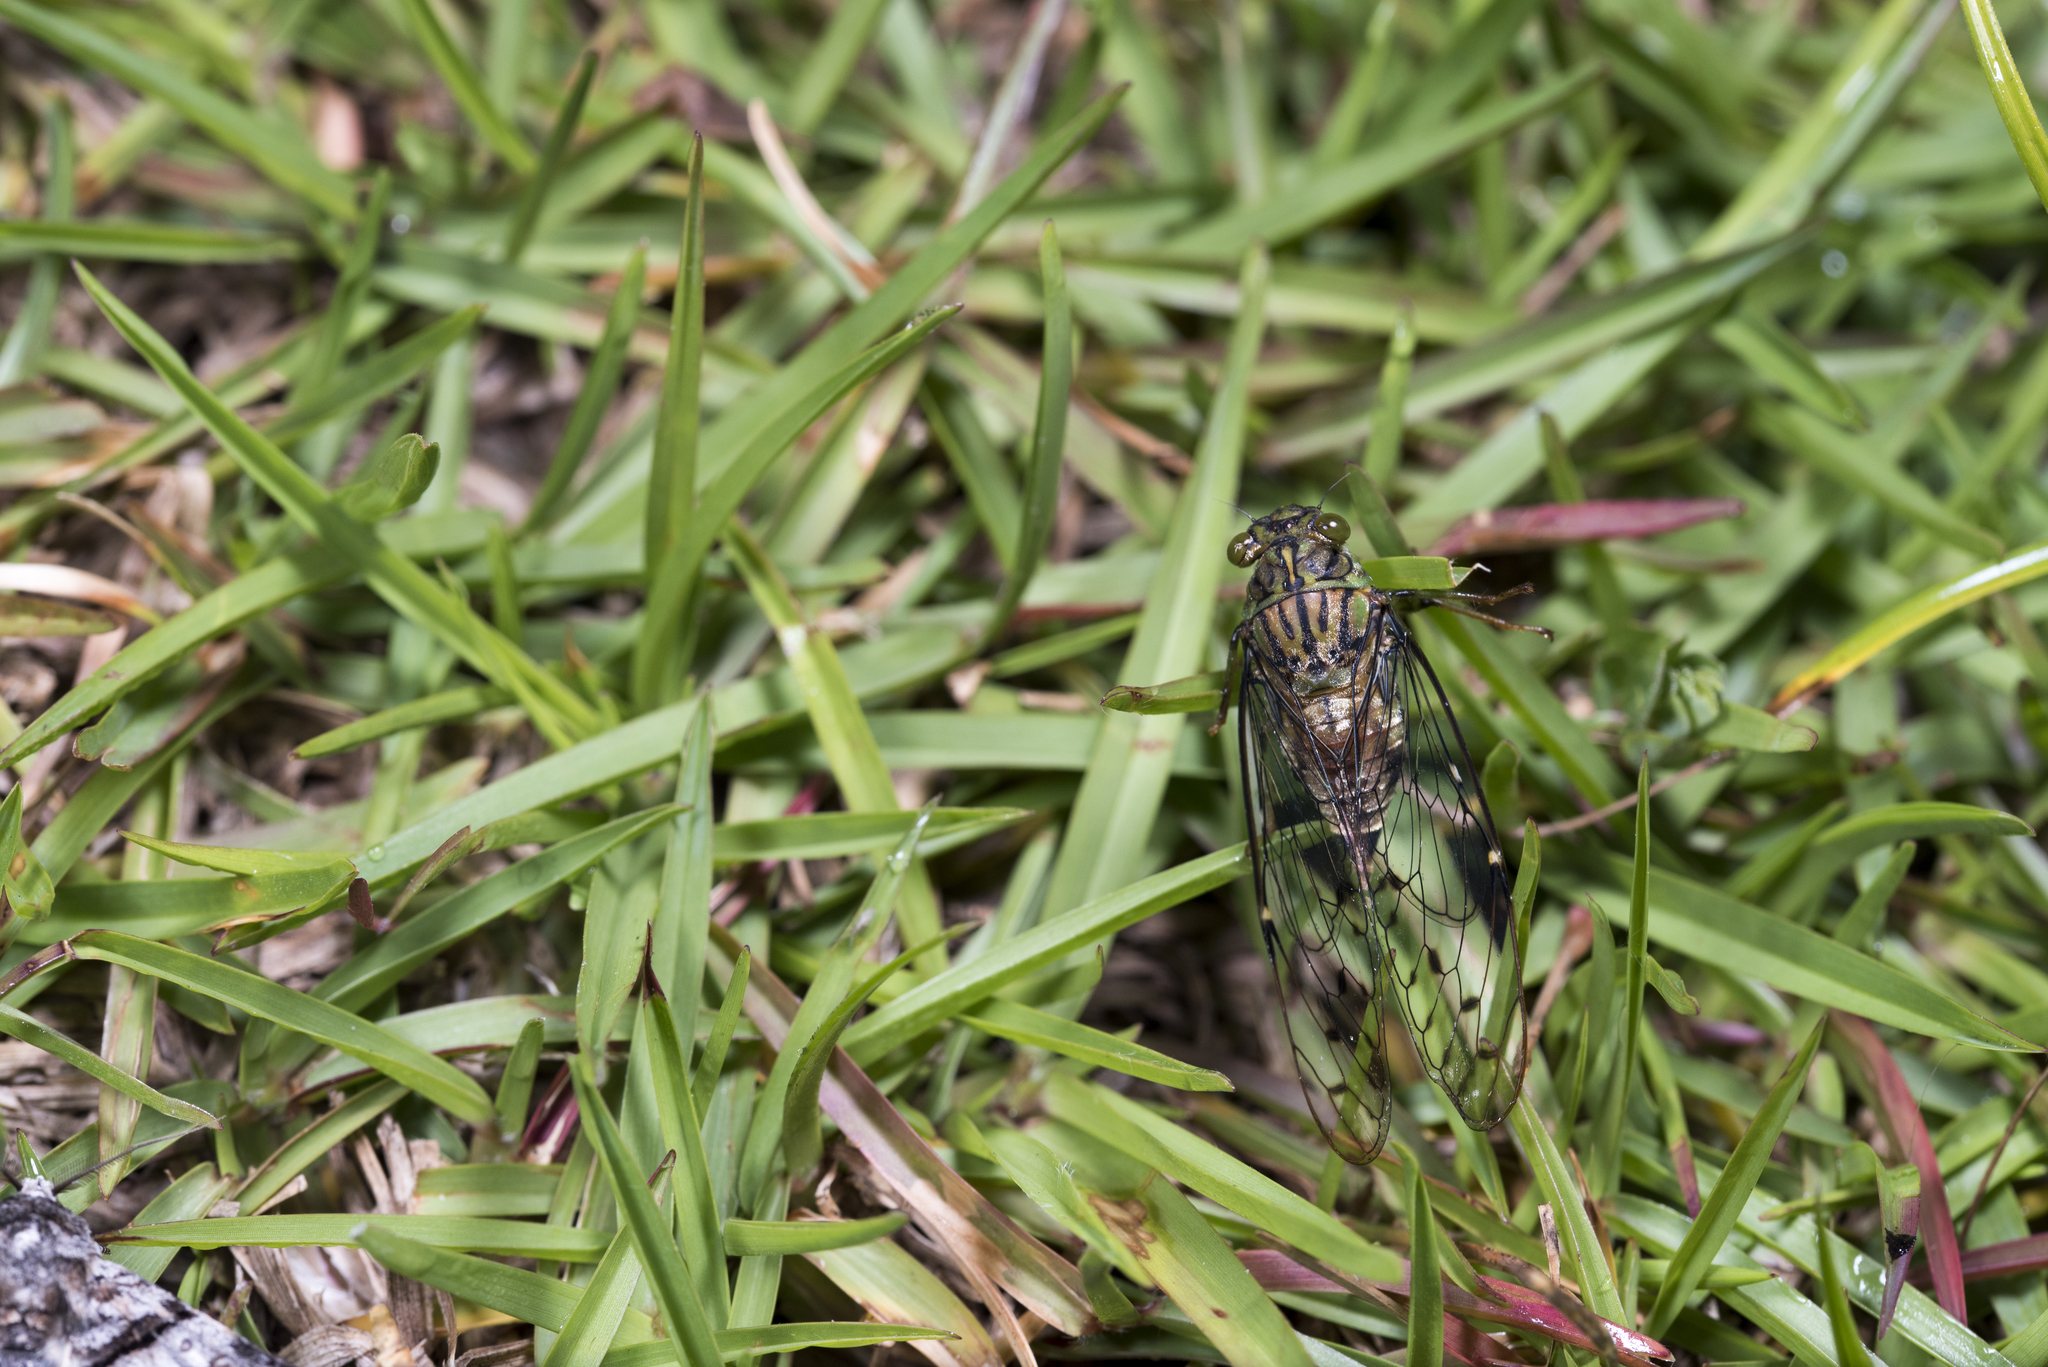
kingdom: Animalia
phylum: Arthropoda
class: Insecta
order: Hemiptera
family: Cicadidae
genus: Leptosemia
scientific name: Leptosemia sakaii
